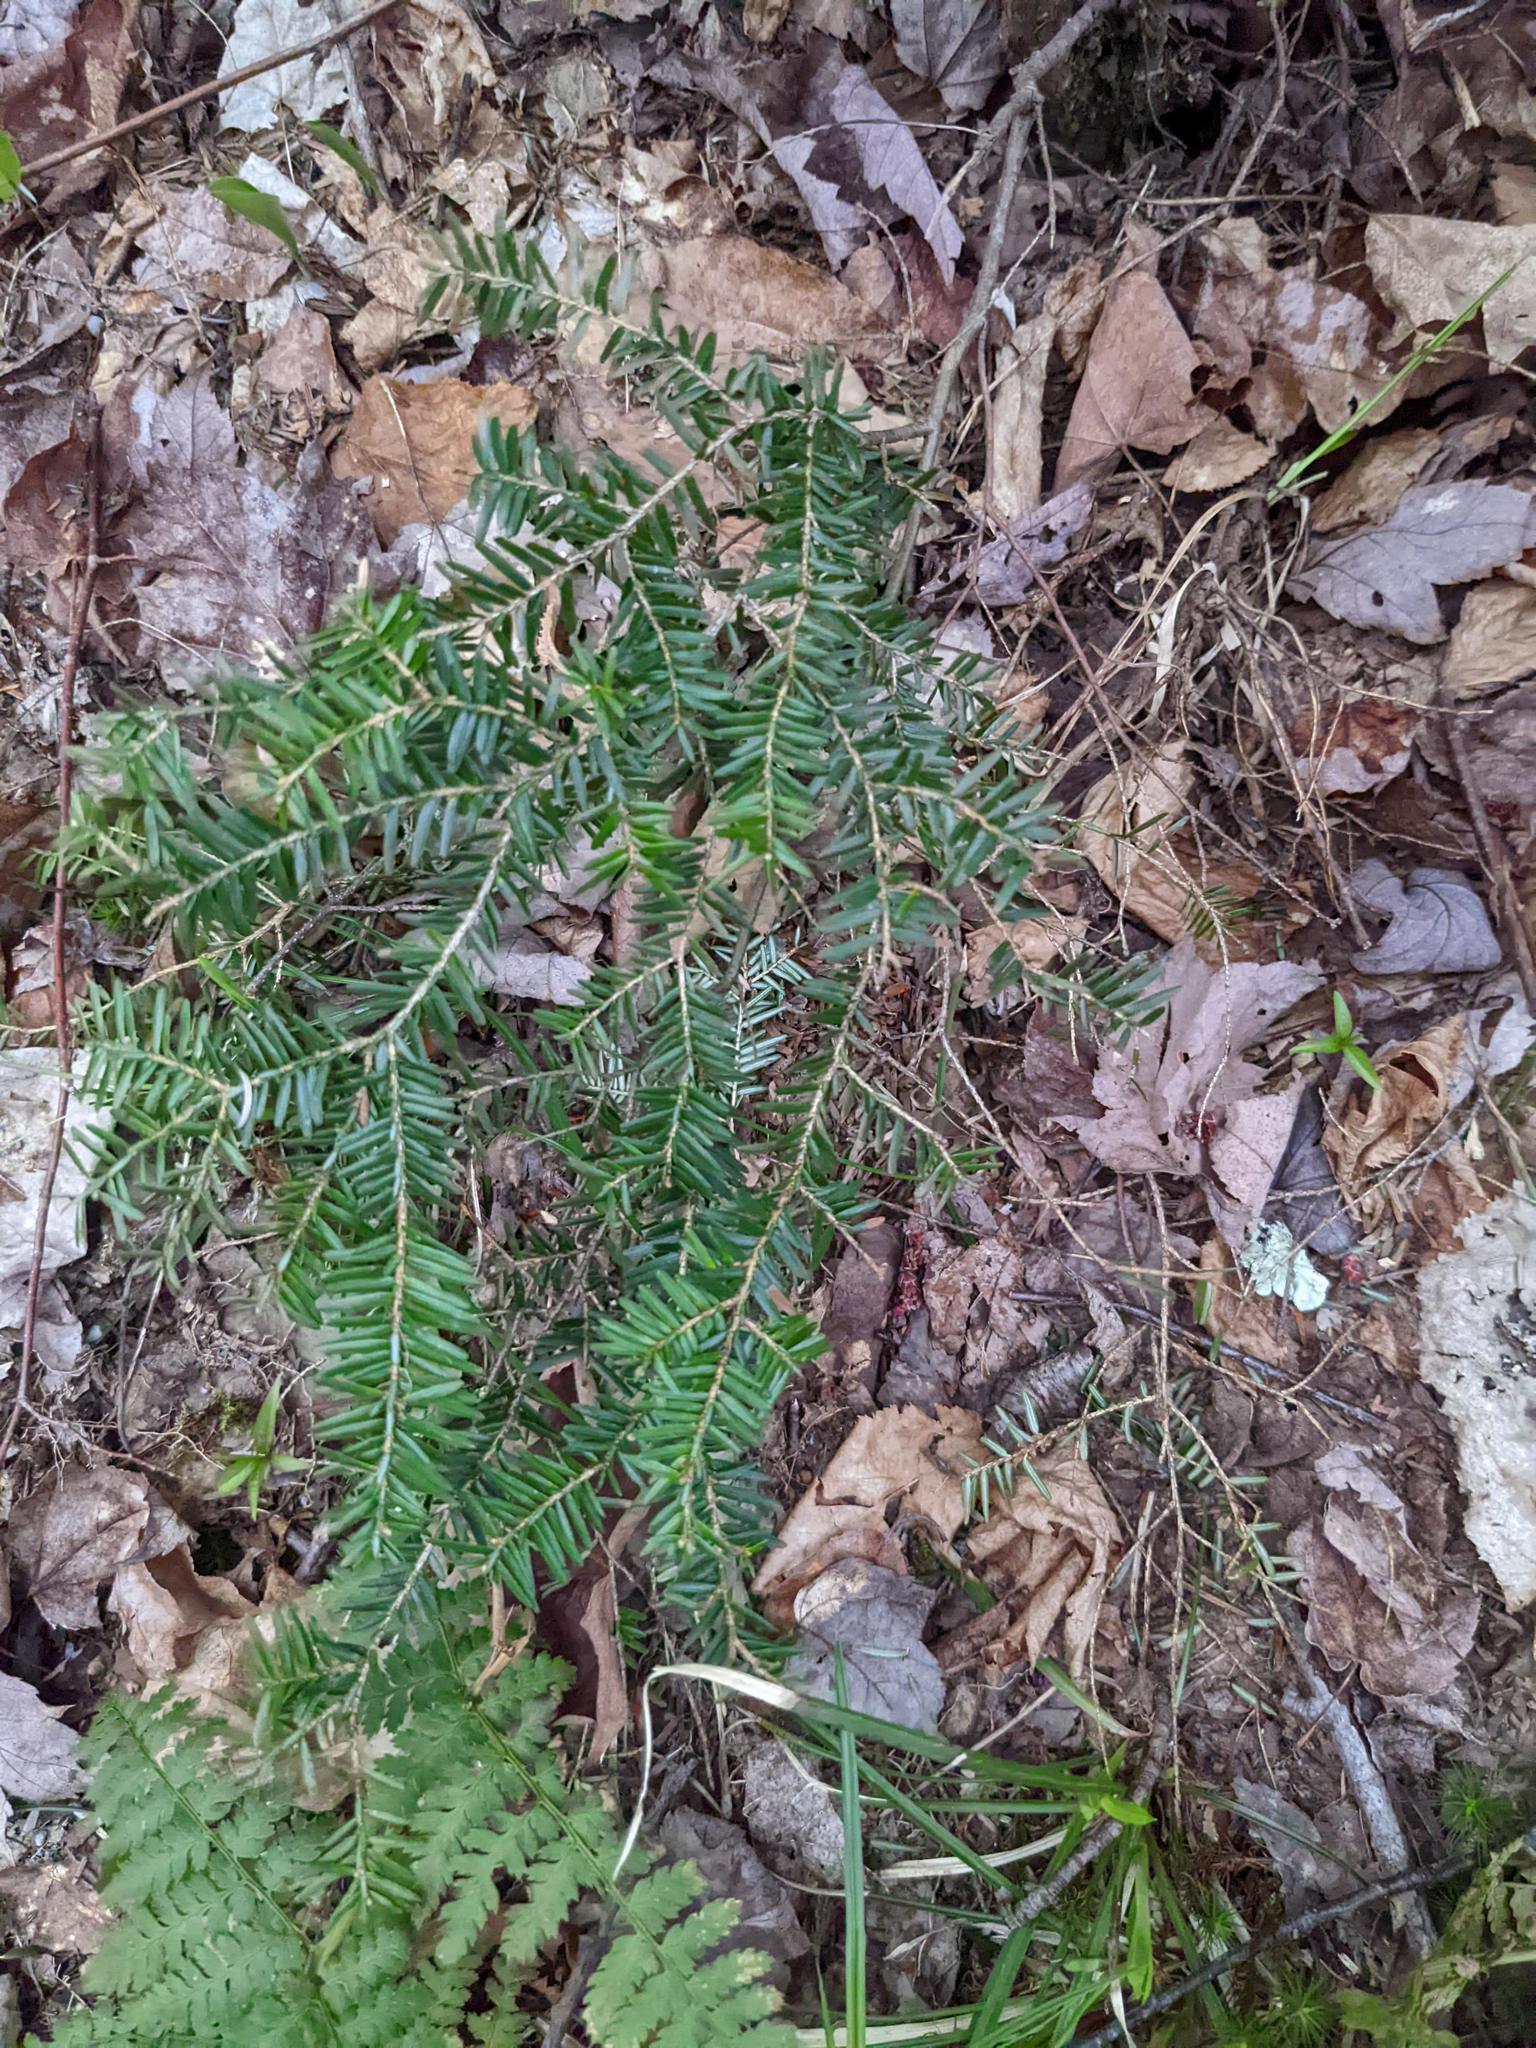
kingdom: Plantae
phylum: Tracheophyta
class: Pinopsida
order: Pinales
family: Pinaceae
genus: Tsuga
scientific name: Tsuga canadensis
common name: Eastern hemlock
